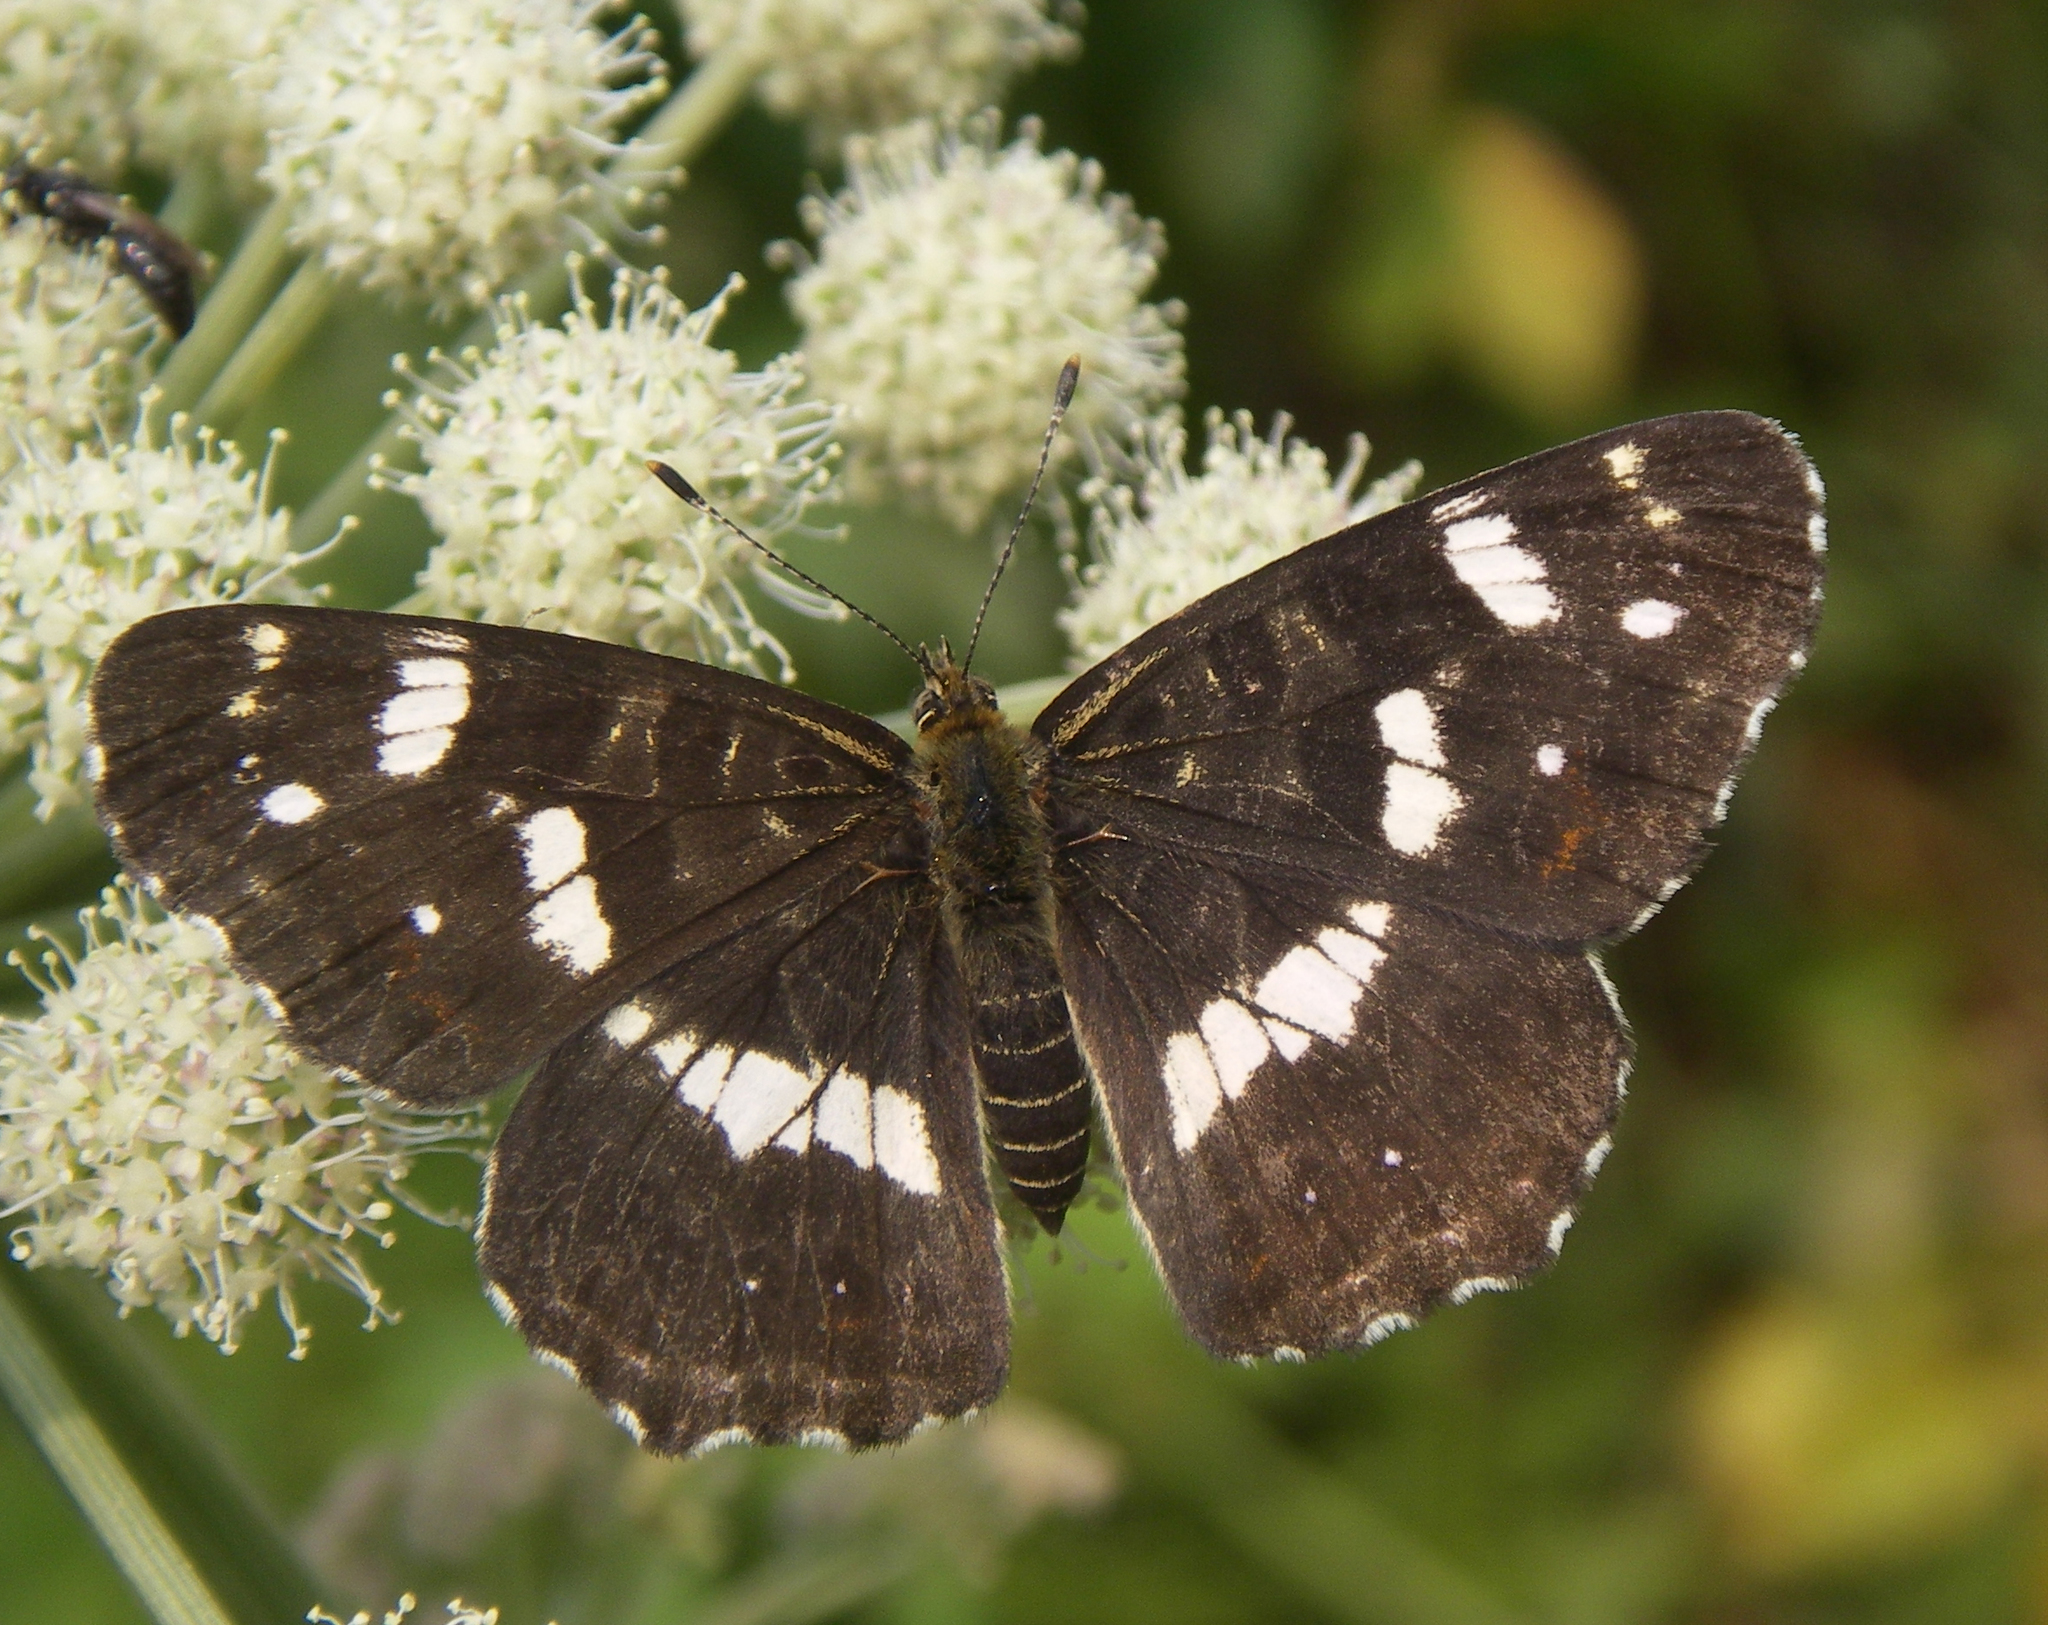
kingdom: Animalia
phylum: Arthropoda
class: Insecta
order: Lepidoptera
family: Nymphalidae
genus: Araschnia
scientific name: Araschnia levana
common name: Map butterfly
